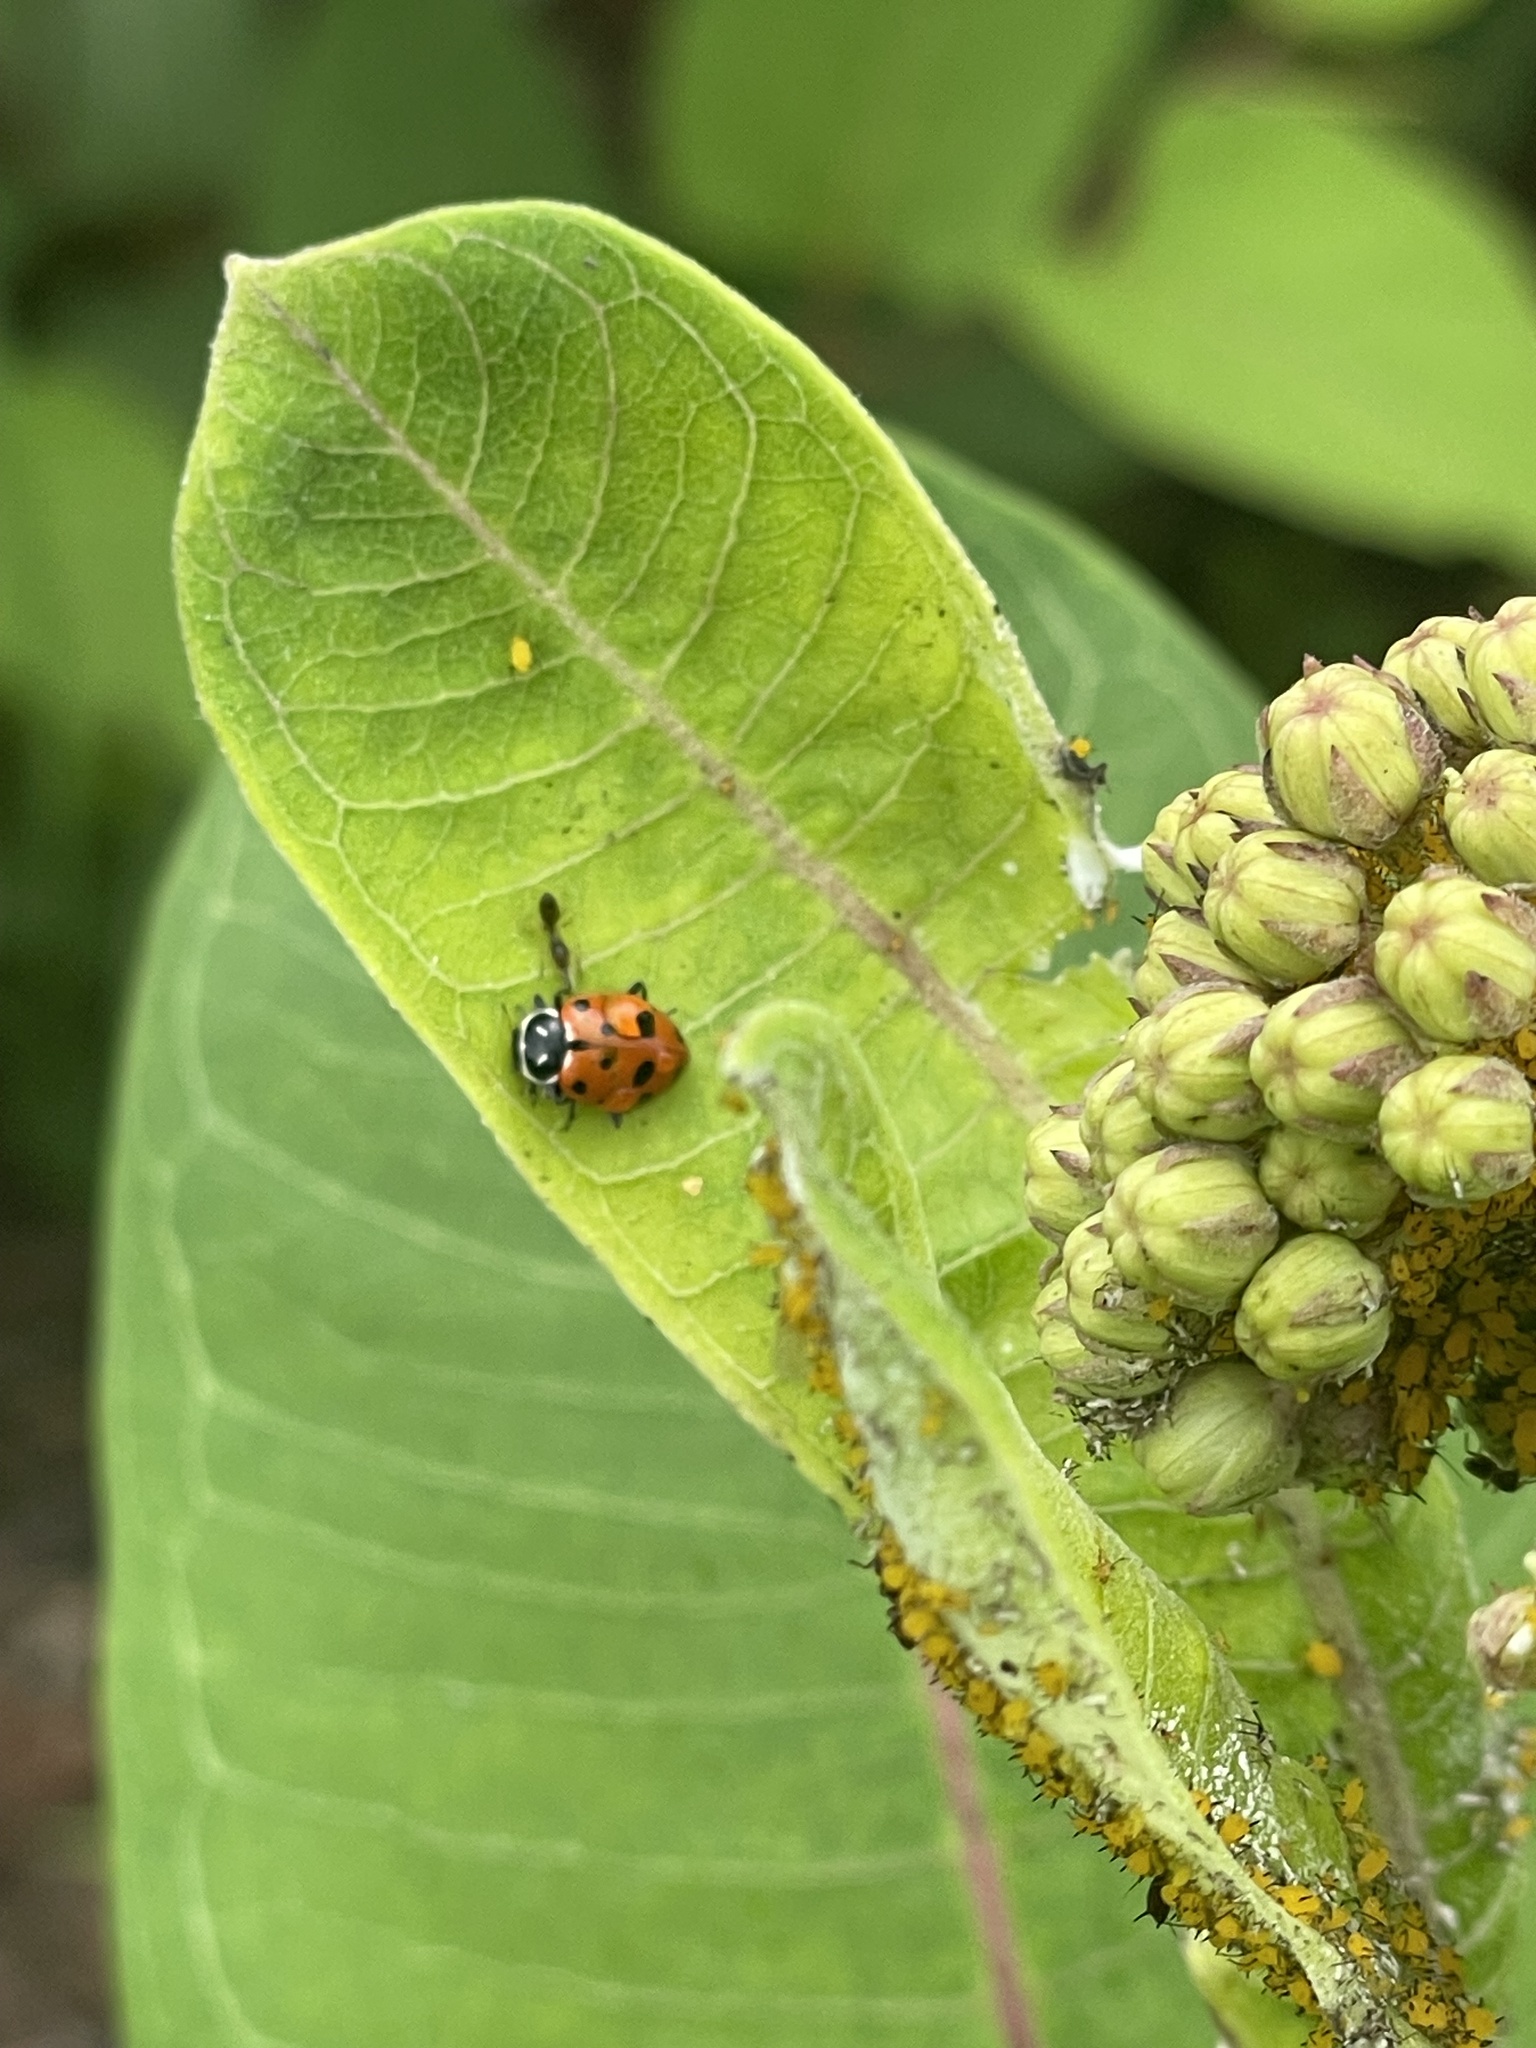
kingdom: Animalia
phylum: Arthropoda
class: Insecta
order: Coleoptera
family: Coccinellidae
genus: Hippodamia
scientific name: Hippodamia convergens
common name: Convergent lady beetle
